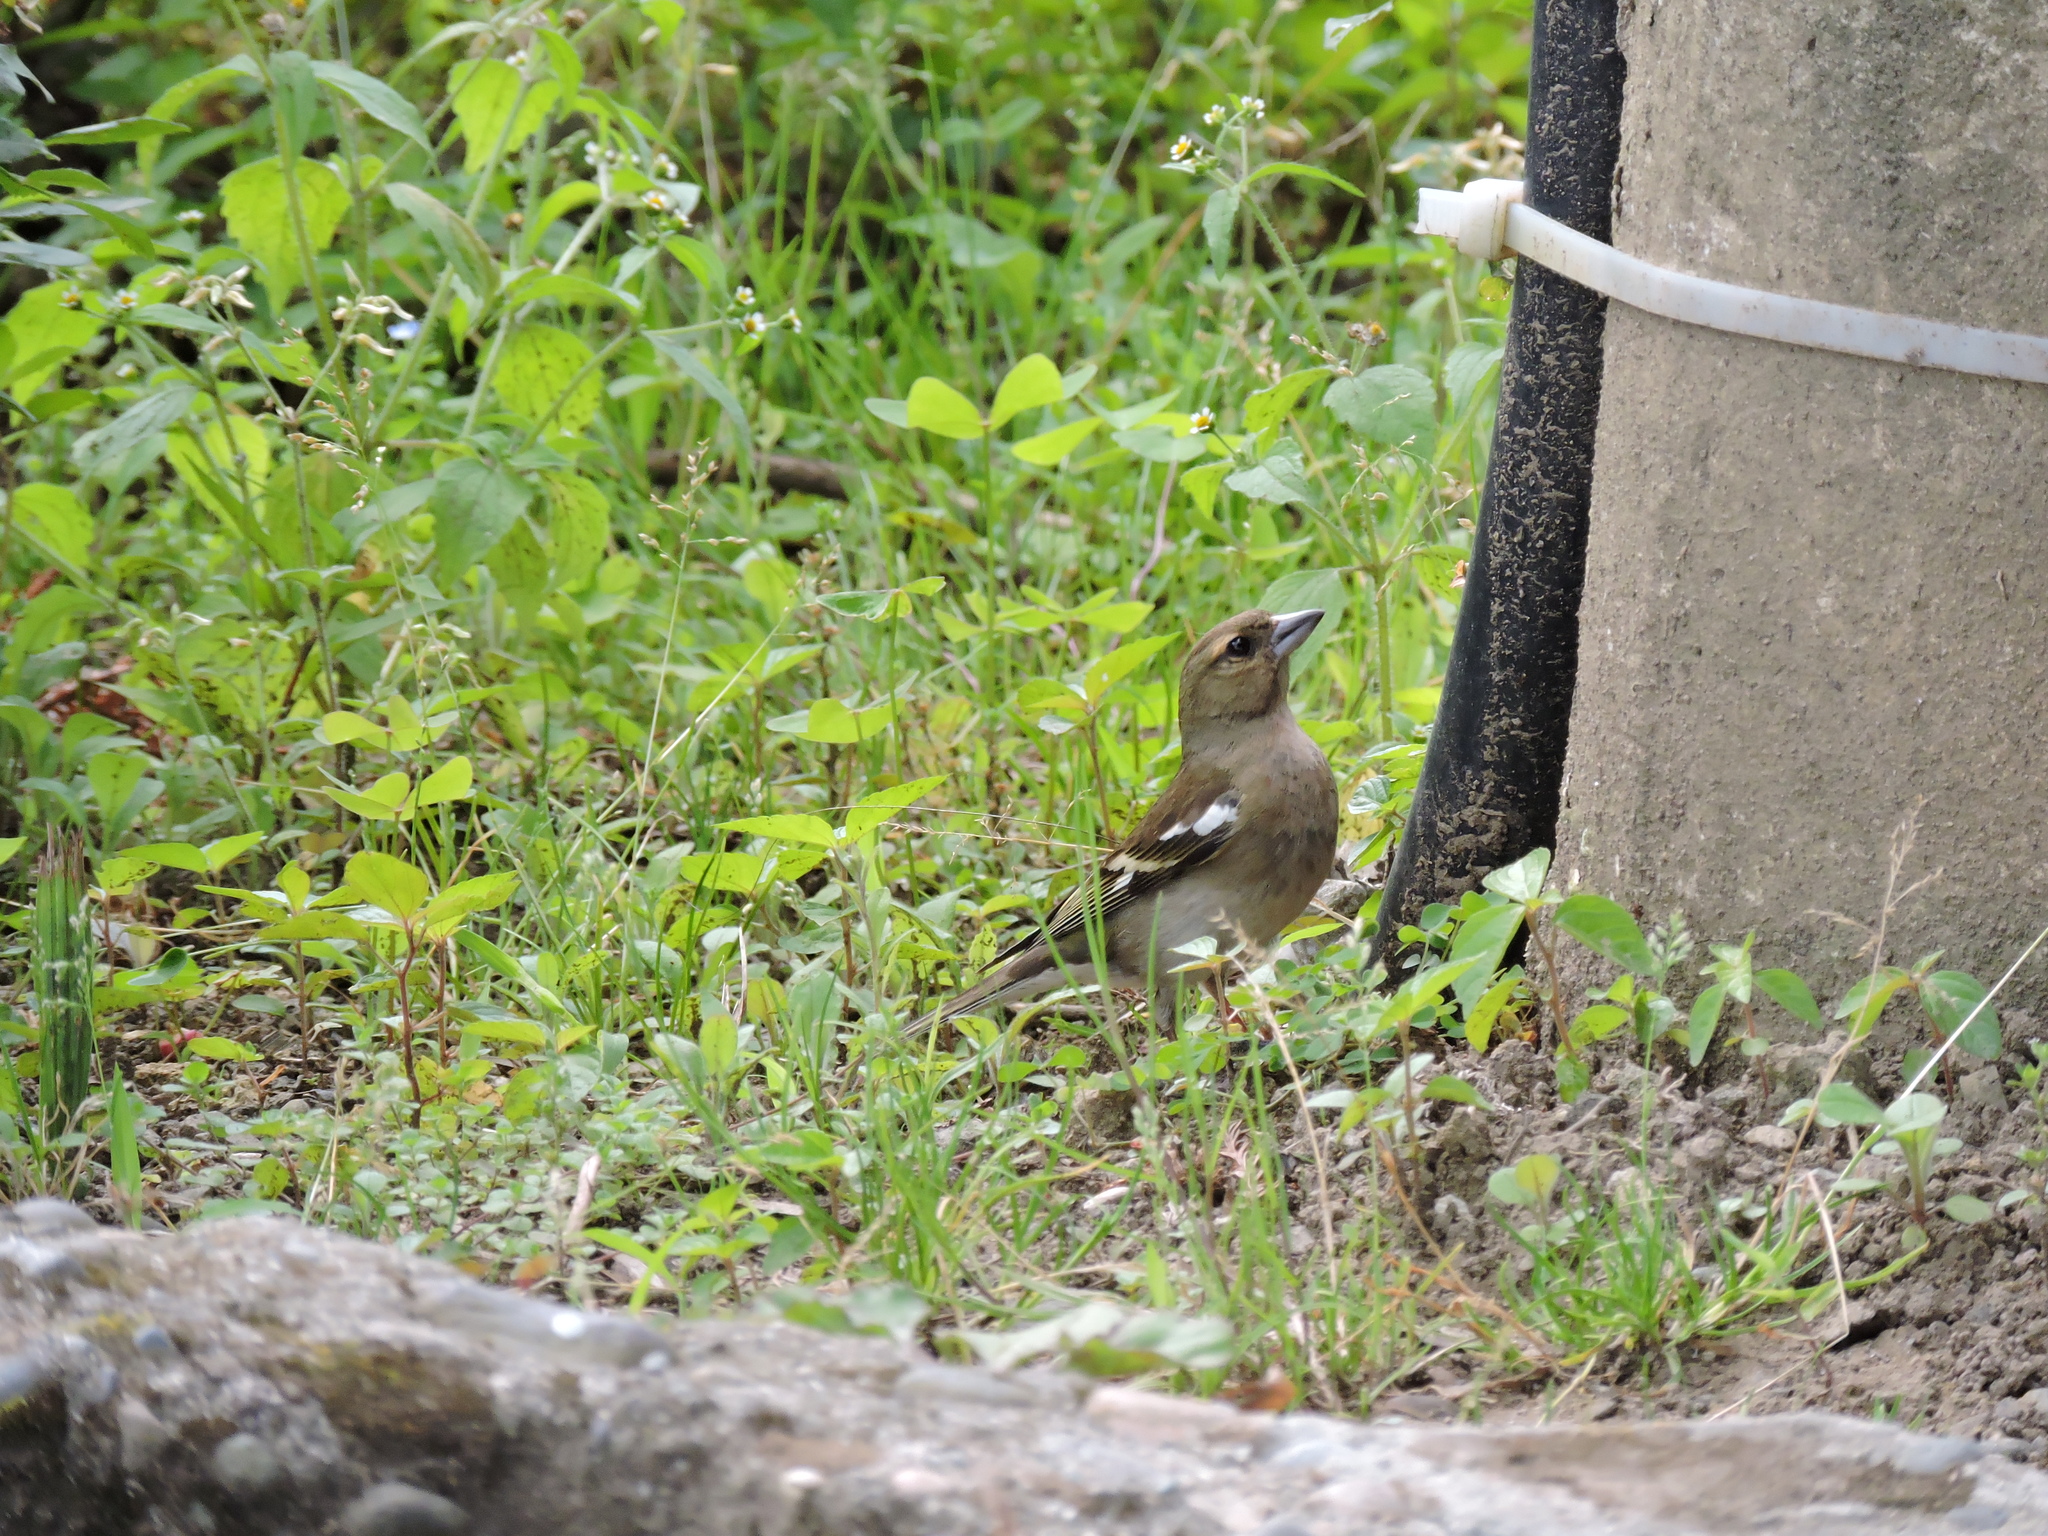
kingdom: Animalia
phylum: Chordata
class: Aves
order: Passeriformes
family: Fringillidae
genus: Fringilla
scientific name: Fringilla coelebs
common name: Common chaffinch
